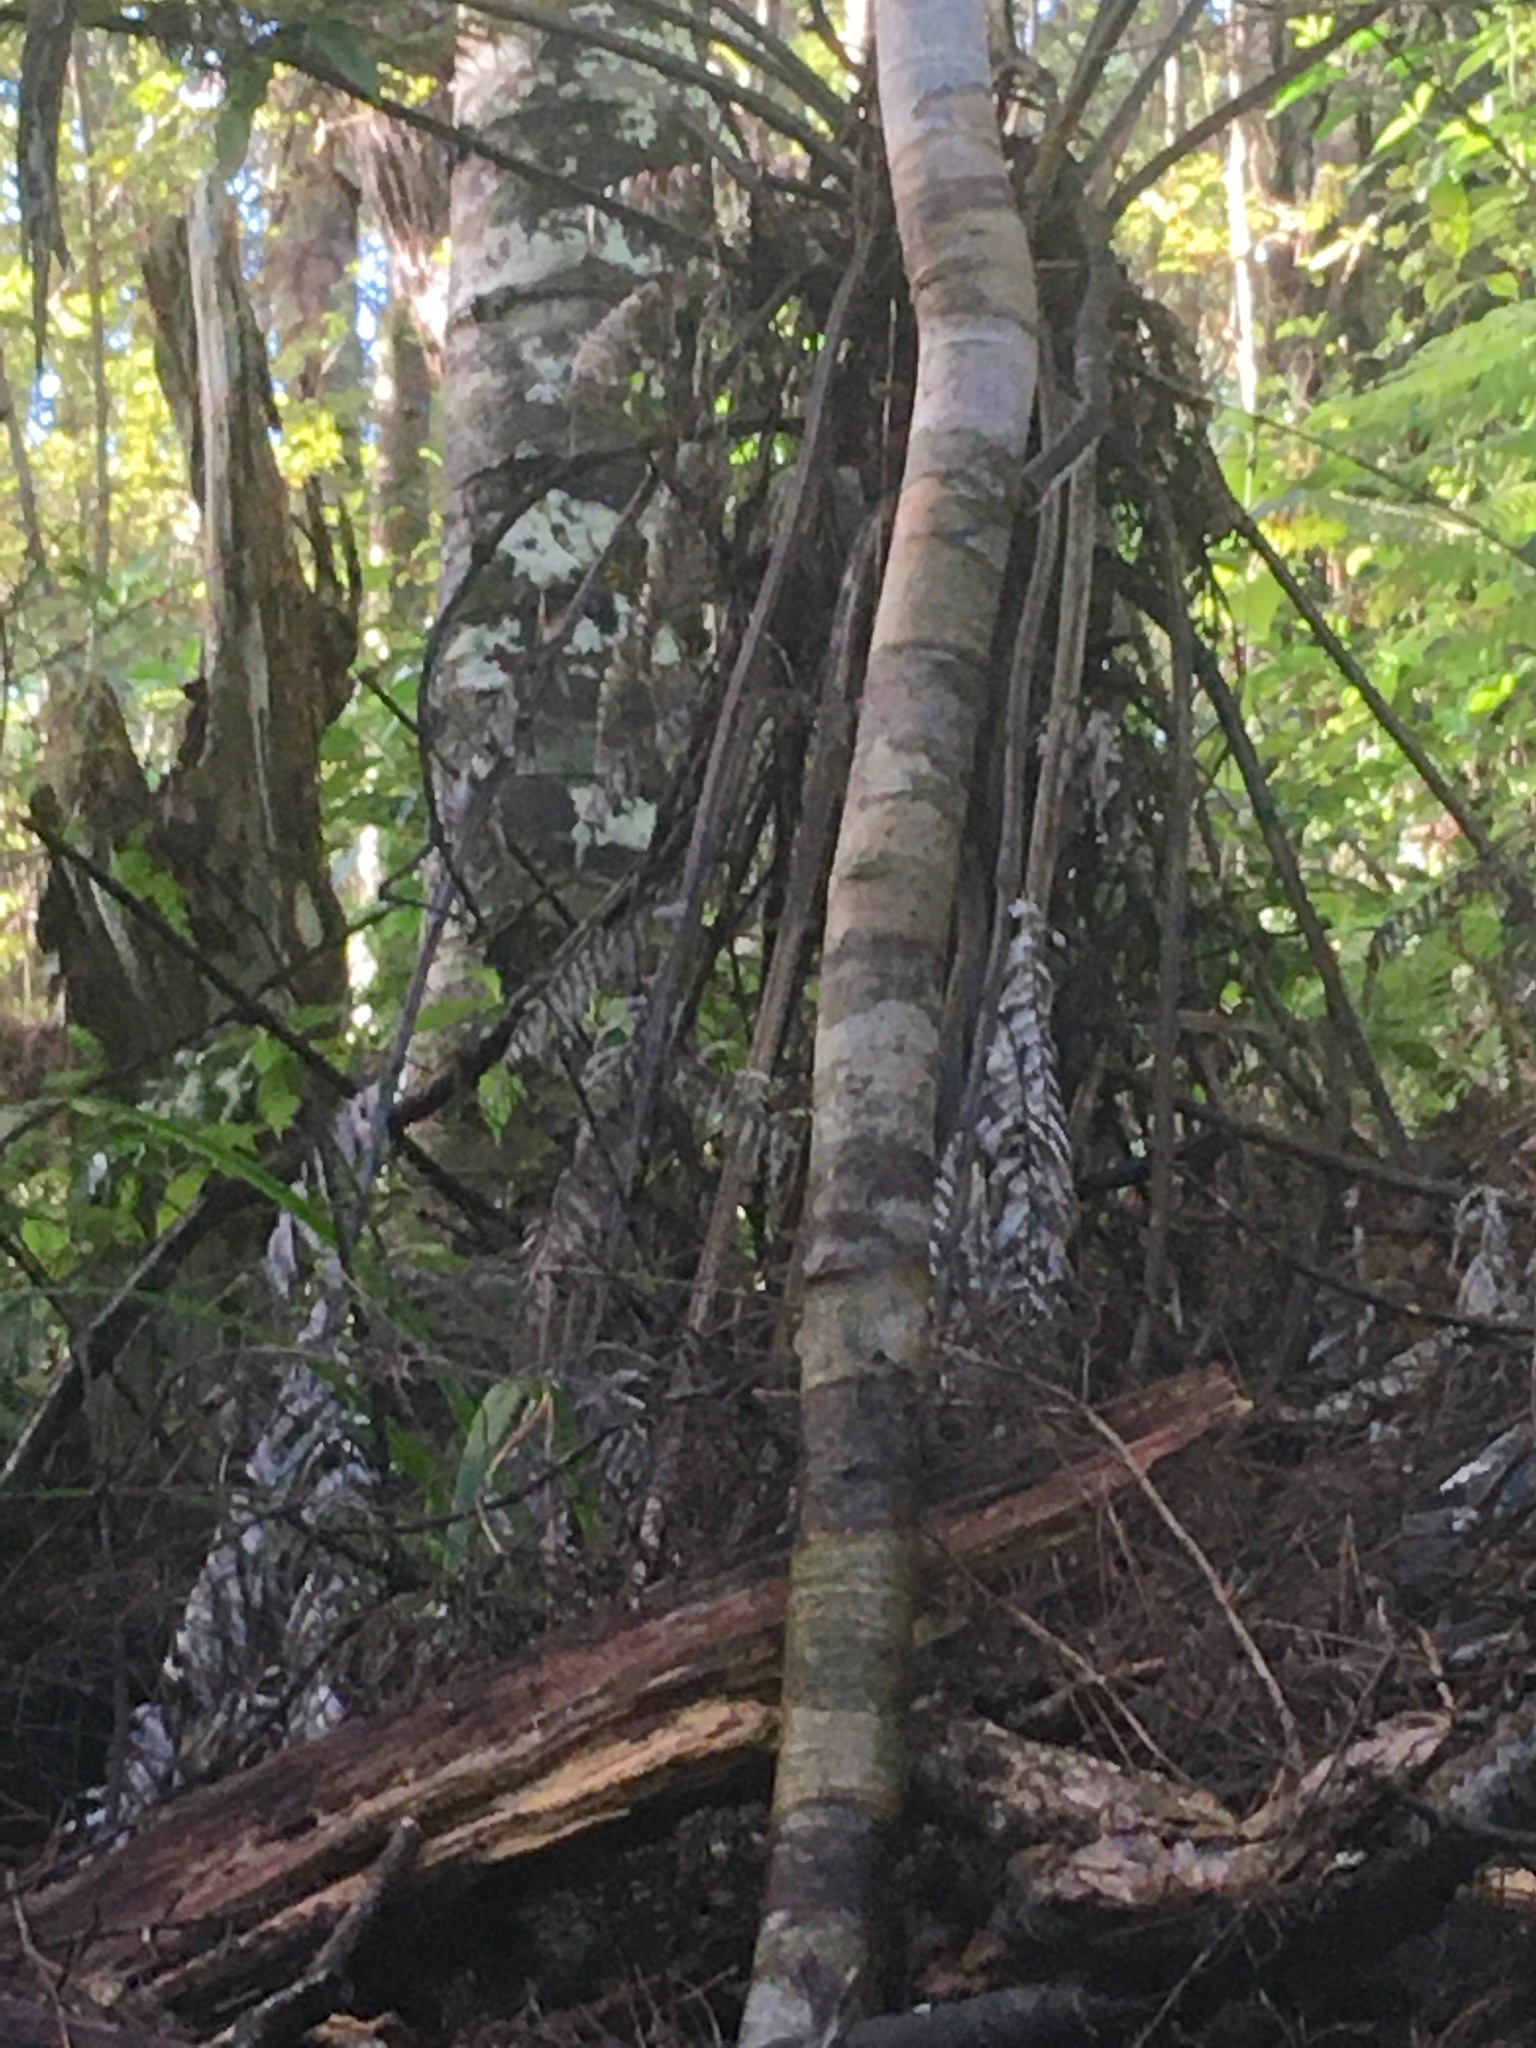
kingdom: Plantae
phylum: Tracheophyta
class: Pinopsida
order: Pinales
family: Araucariaceae
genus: Agathis
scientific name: Agathis australis
